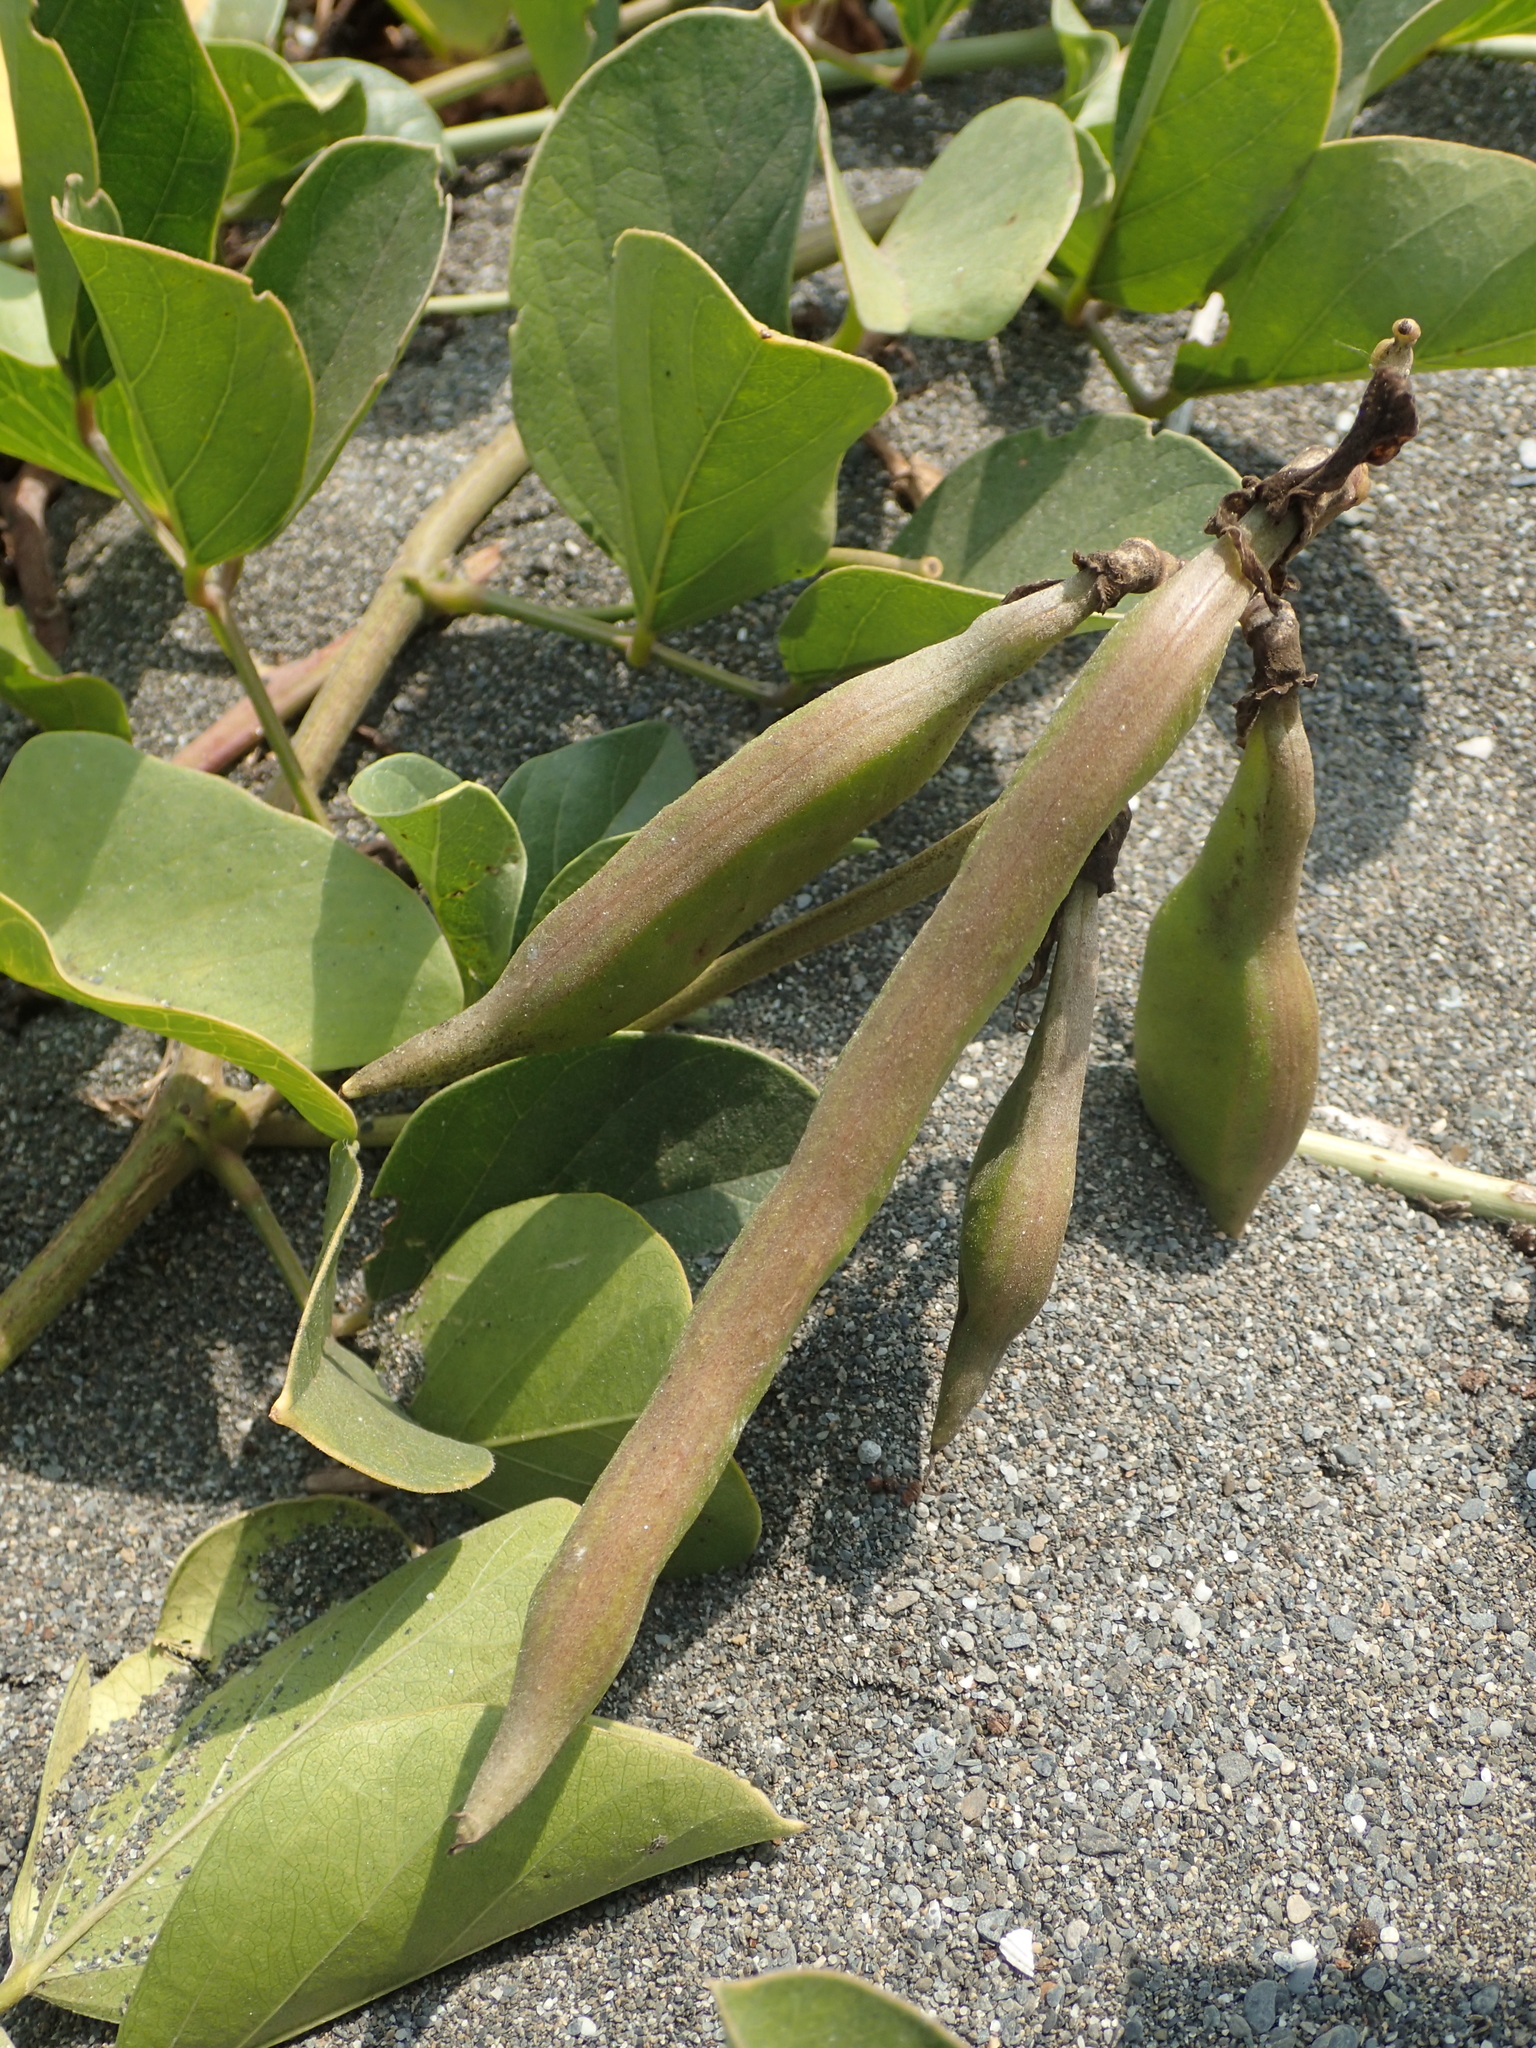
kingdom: Plantae
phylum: Tracheophyta
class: Magnoliopsida
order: Fabales
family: Fabaceae
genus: Canavalia
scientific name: Canavalia rosea
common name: Beach-bean
